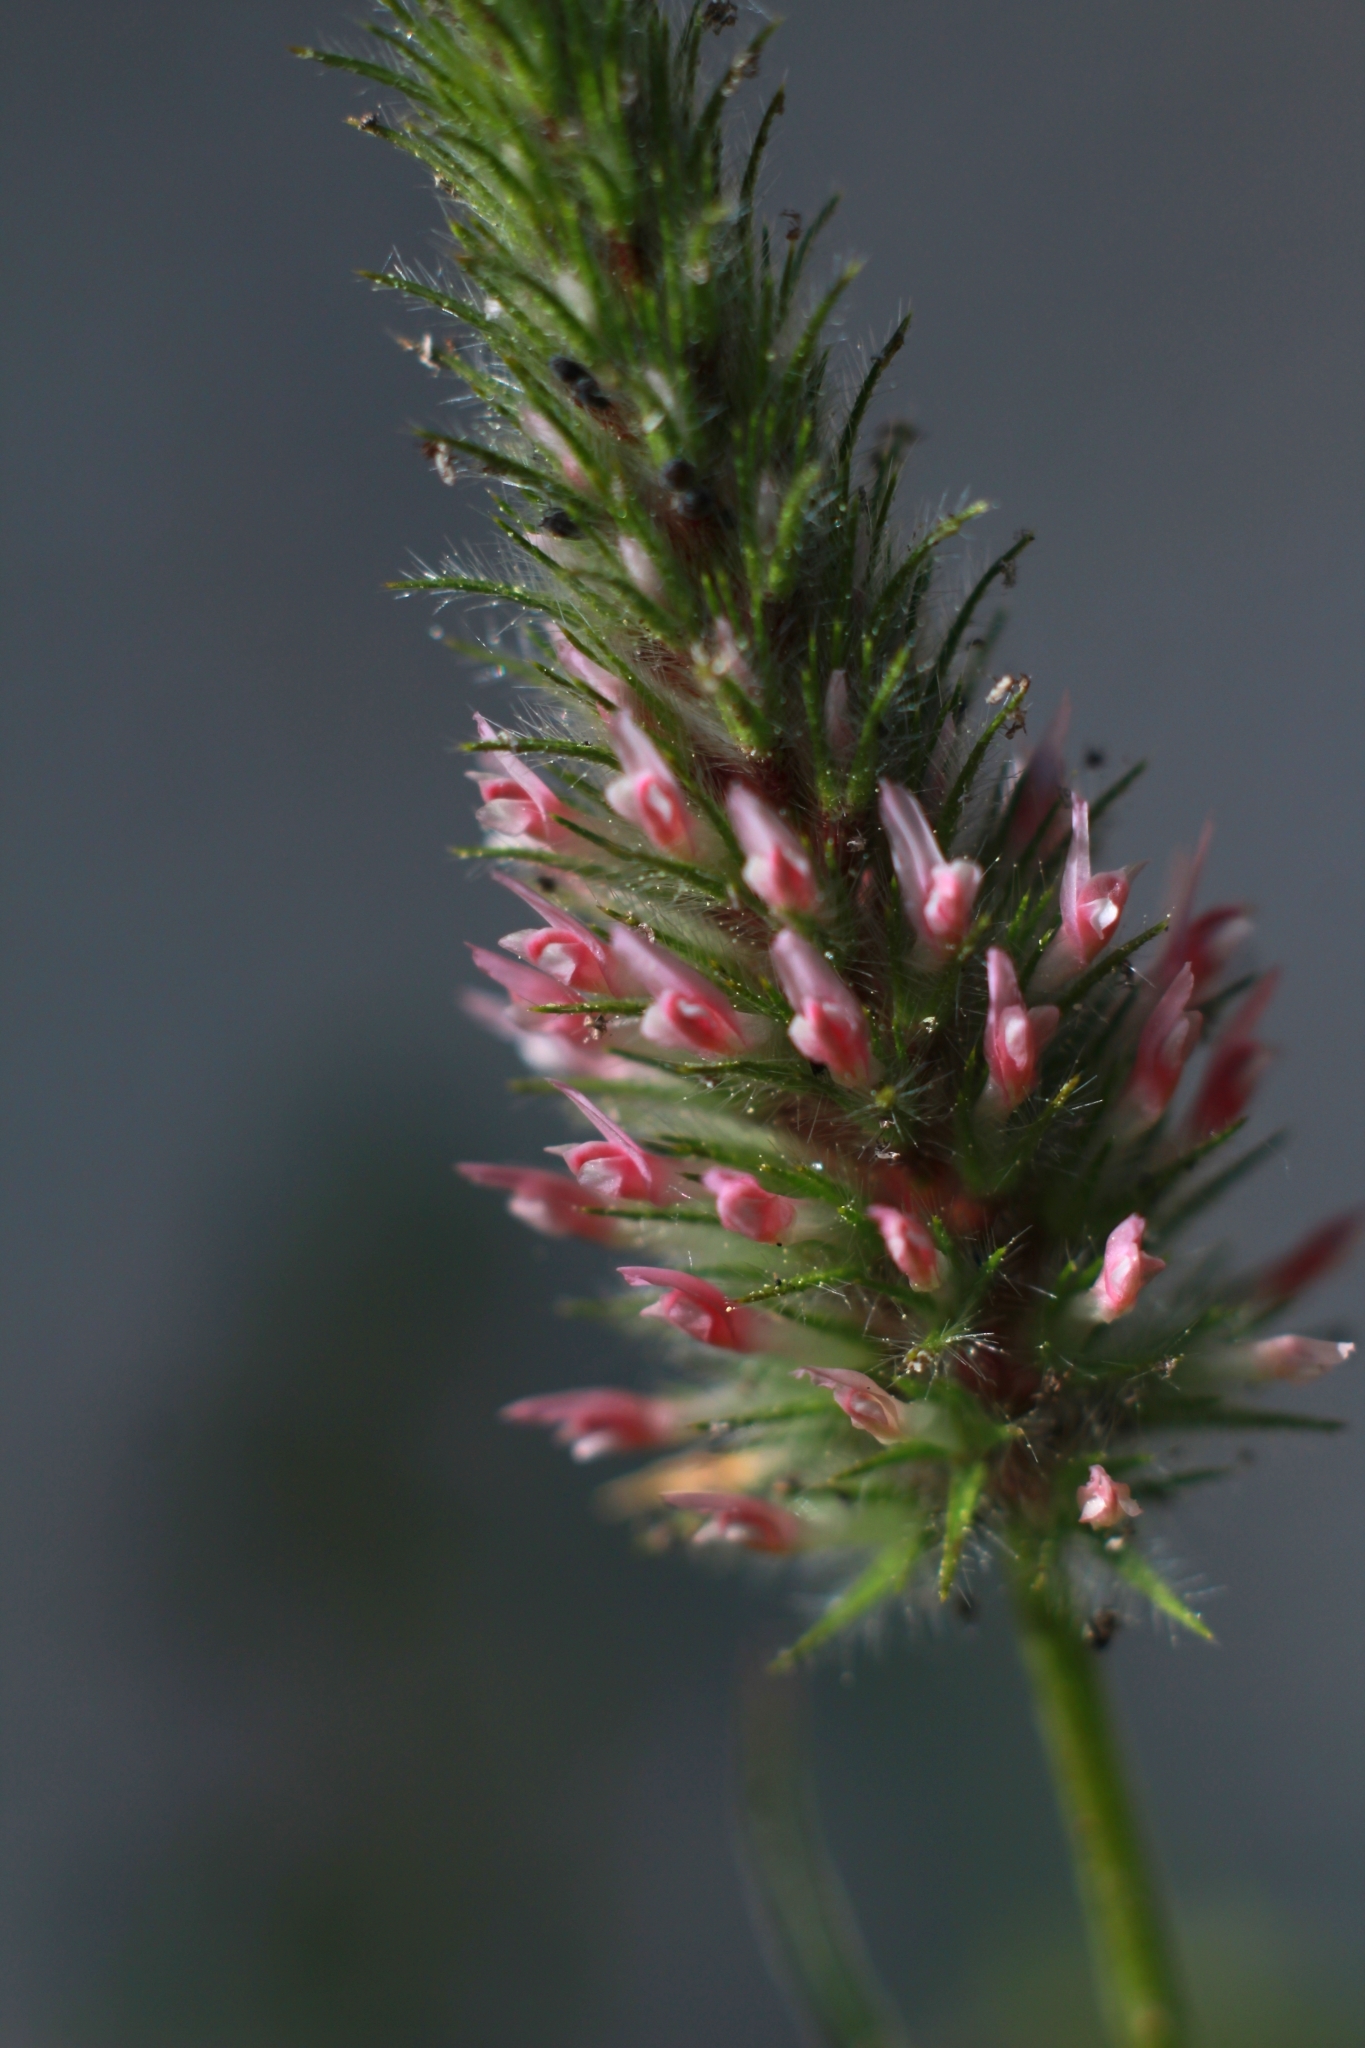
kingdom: Plantae
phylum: Tracheophyta
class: Magnoliopsida
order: Fabales
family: Fabaceae
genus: Trifolium
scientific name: Trifolium angustifolium
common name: Narrow clover
